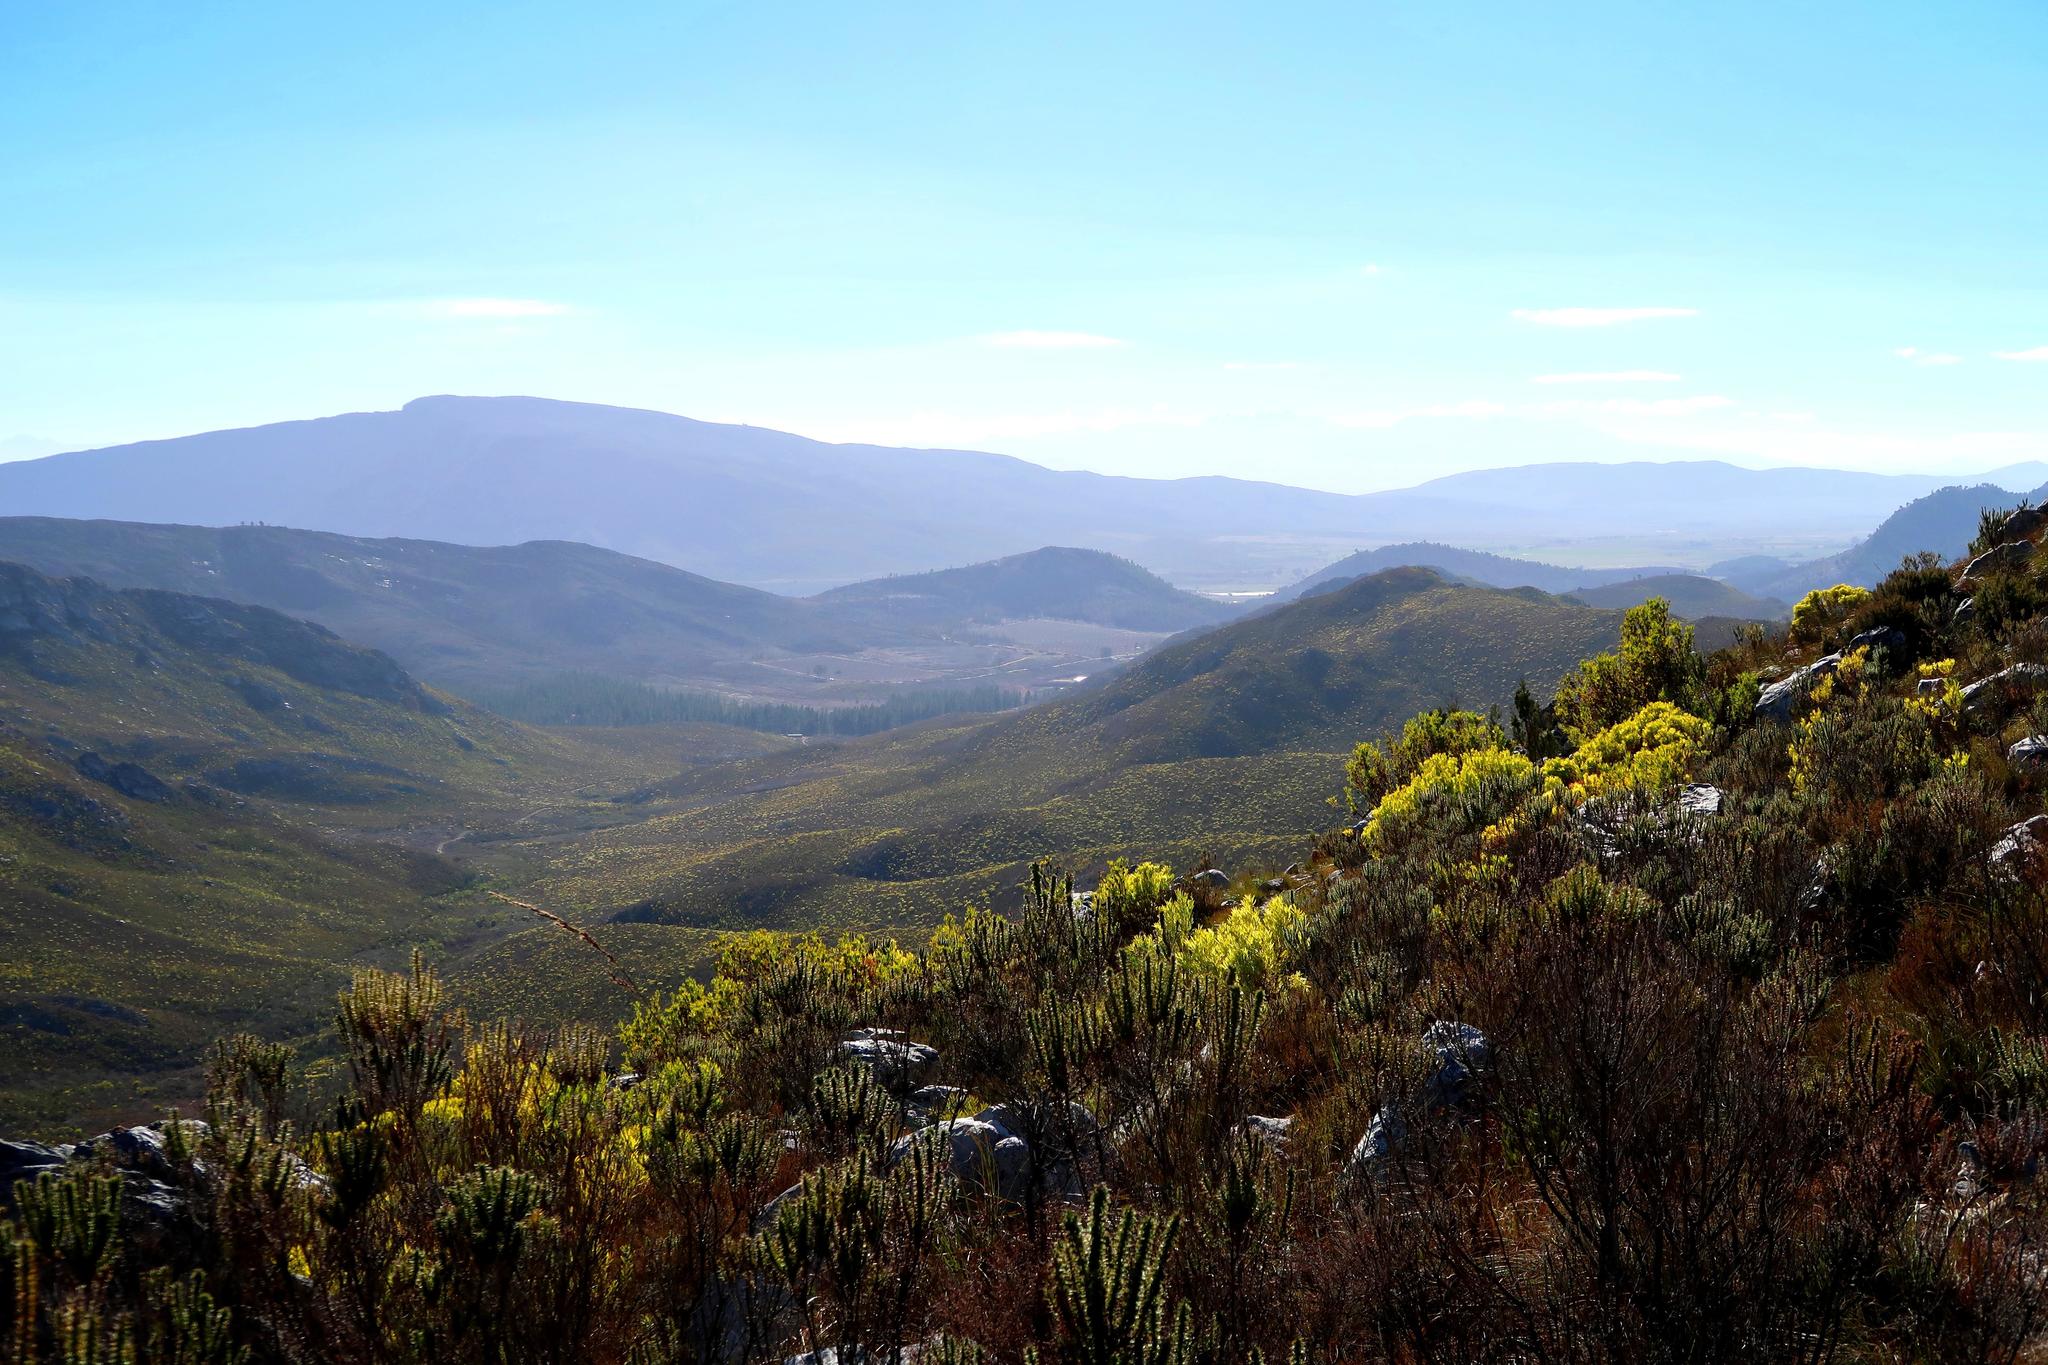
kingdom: Plantae
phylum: Tracheophyta
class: Magnoliopsida
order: Proteales
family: Proteaceae
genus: Leucadendron
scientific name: Leucadendron salignum
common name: Common sunshine conebush
